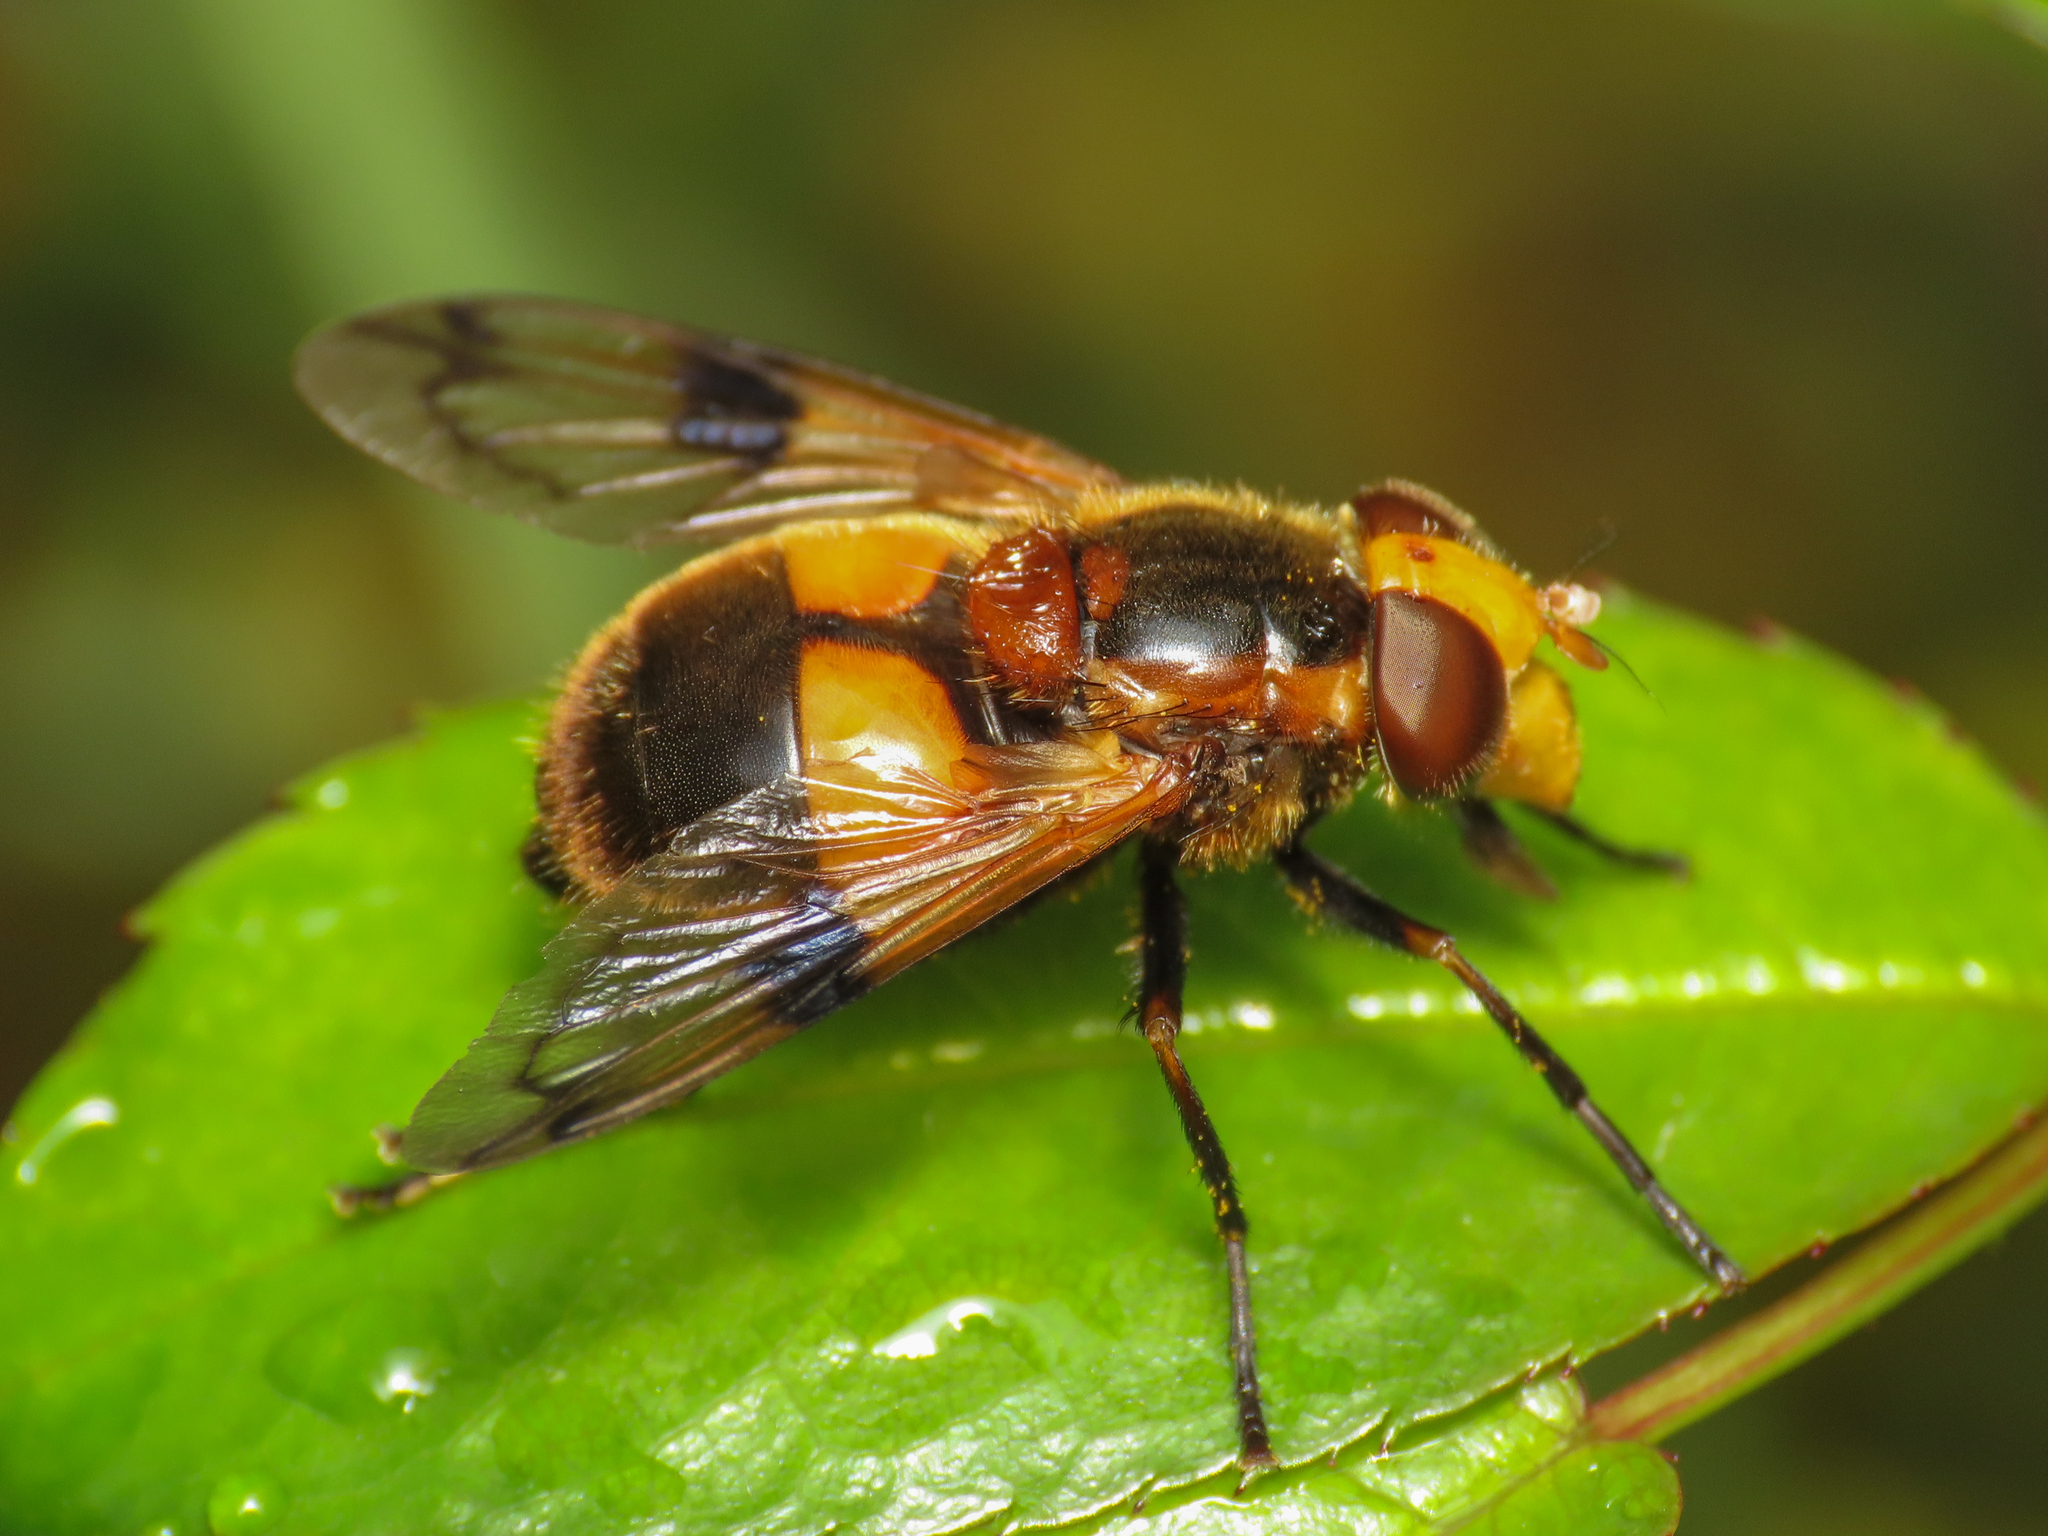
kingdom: Animalia
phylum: Arthropoda
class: Insecta
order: Diptera
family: Syrphidae
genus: Volucella
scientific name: Volucella inflata
